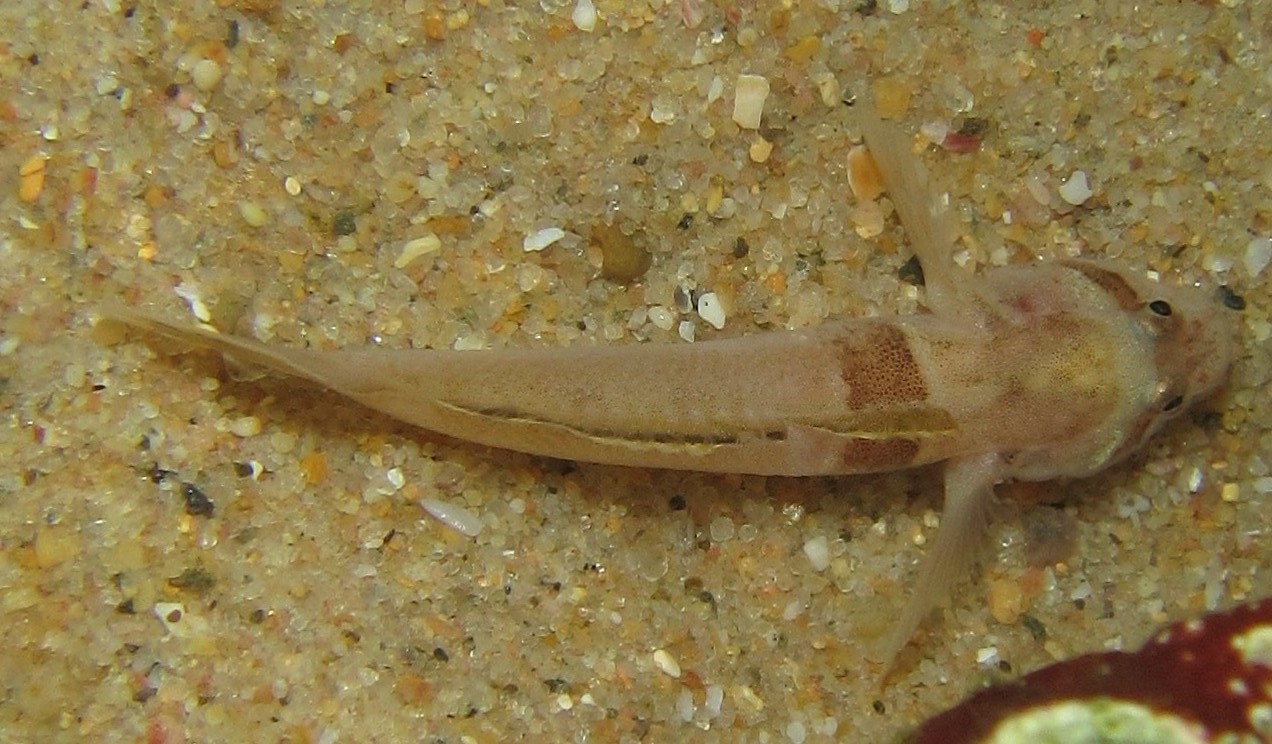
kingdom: Animalia
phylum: Chordata
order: Perciformes
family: Gobiidae
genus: Hetereleotris
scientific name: Hetereleotris zonata
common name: Goggles
